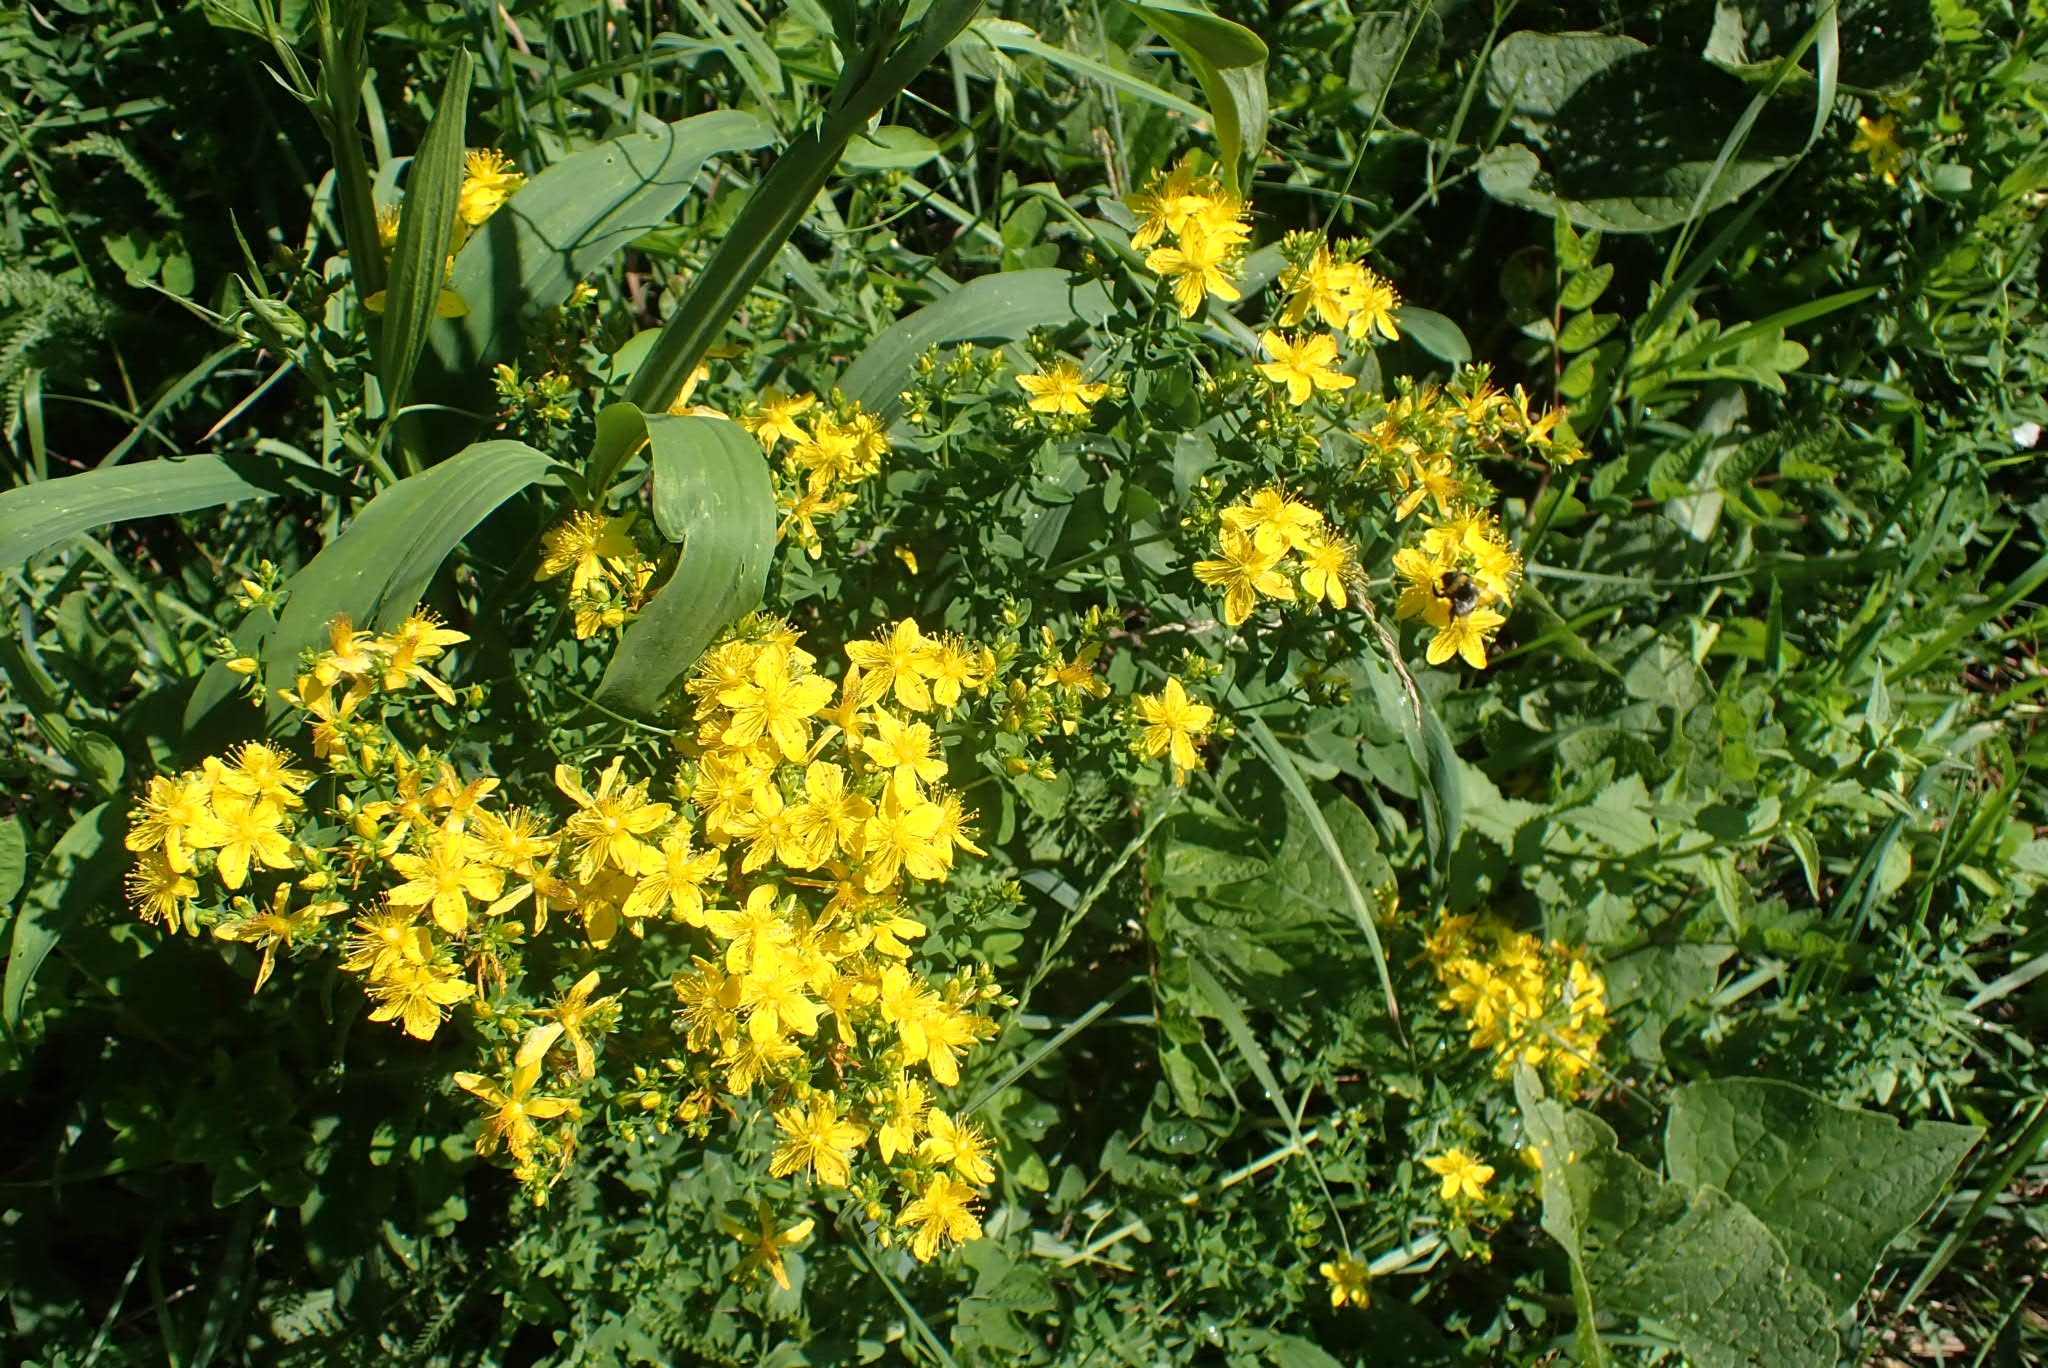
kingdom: Plantae
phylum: Tracheophyta
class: Magnoliopsida
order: Malpighiales
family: Hypericaceae
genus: Hypericum
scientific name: Hypericum perforatum
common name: Common st. johnswort
